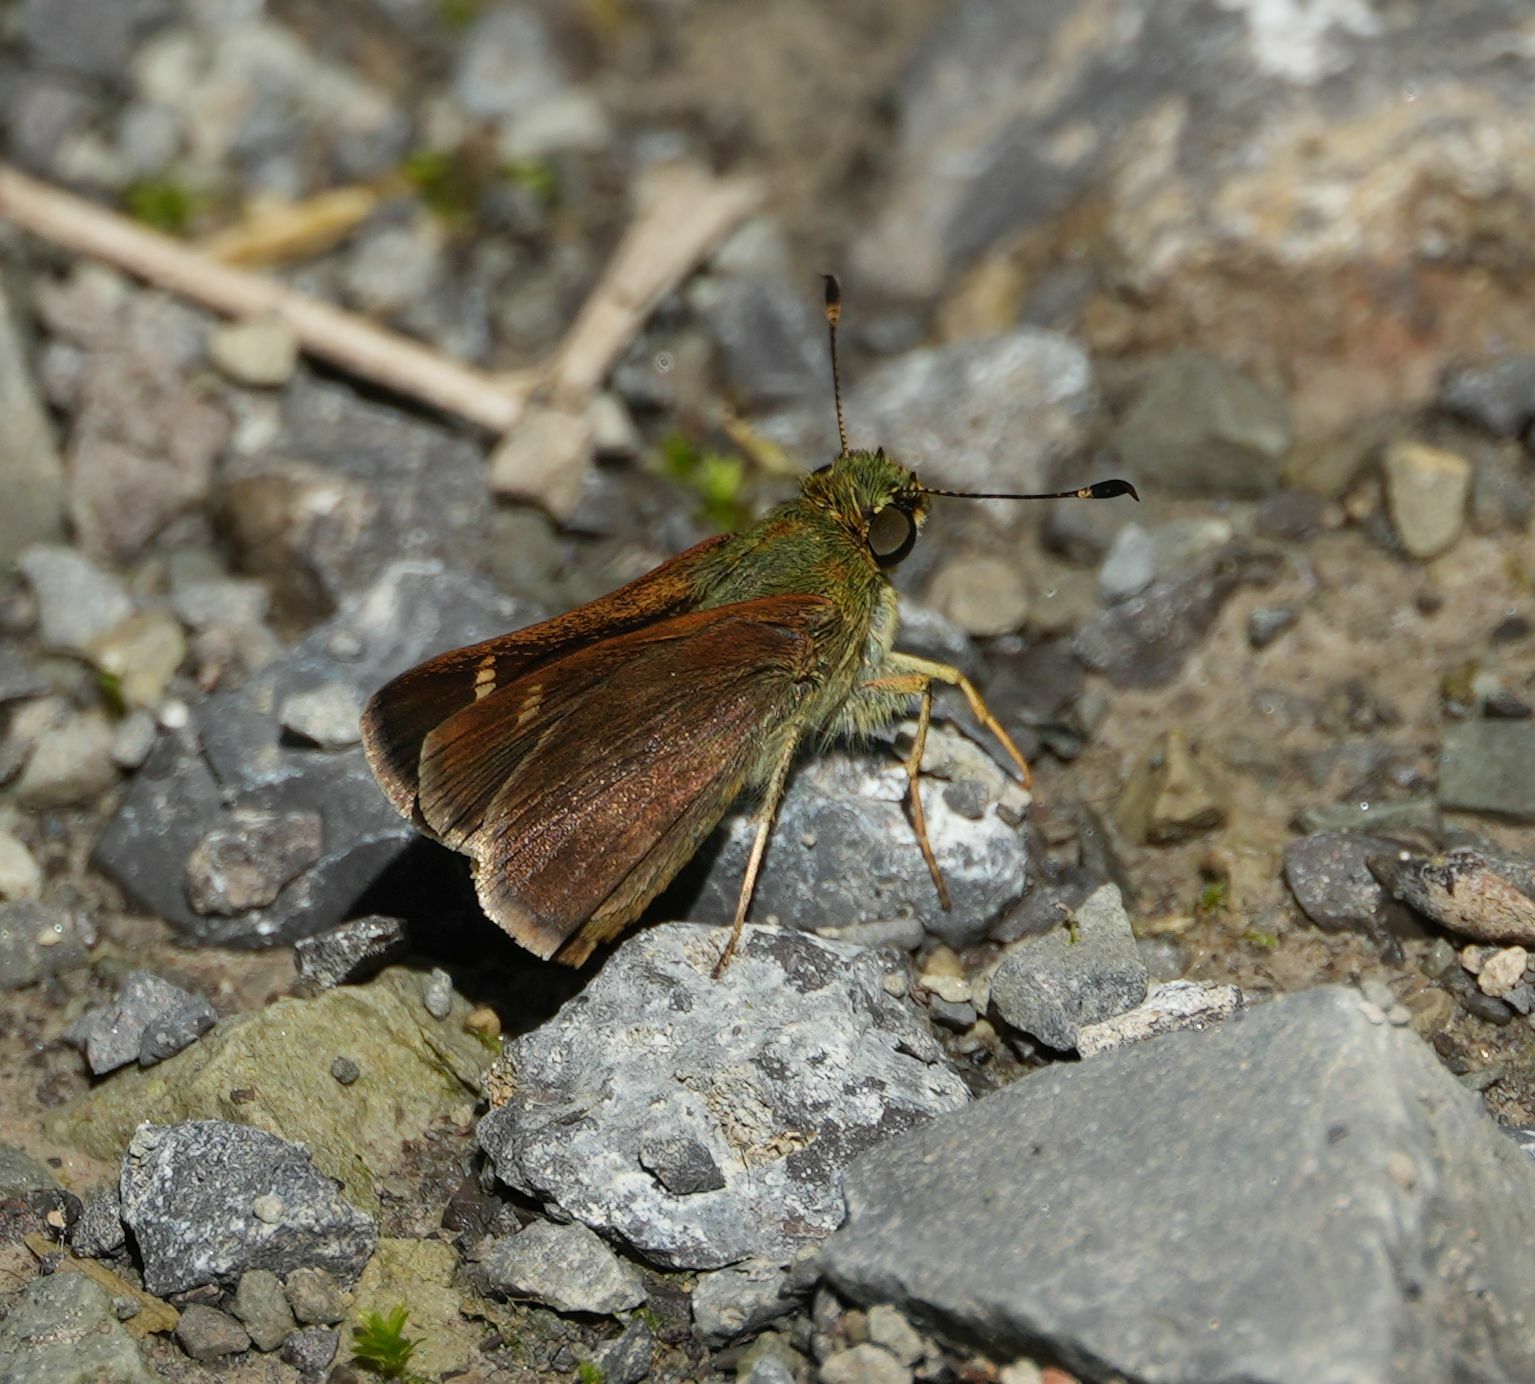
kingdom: Animalia
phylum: Arthropoda
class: Insecta
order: Lepidoptera
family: Hesperiidae
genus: Vernia
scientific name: Vernia verna
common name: Little glassywing
